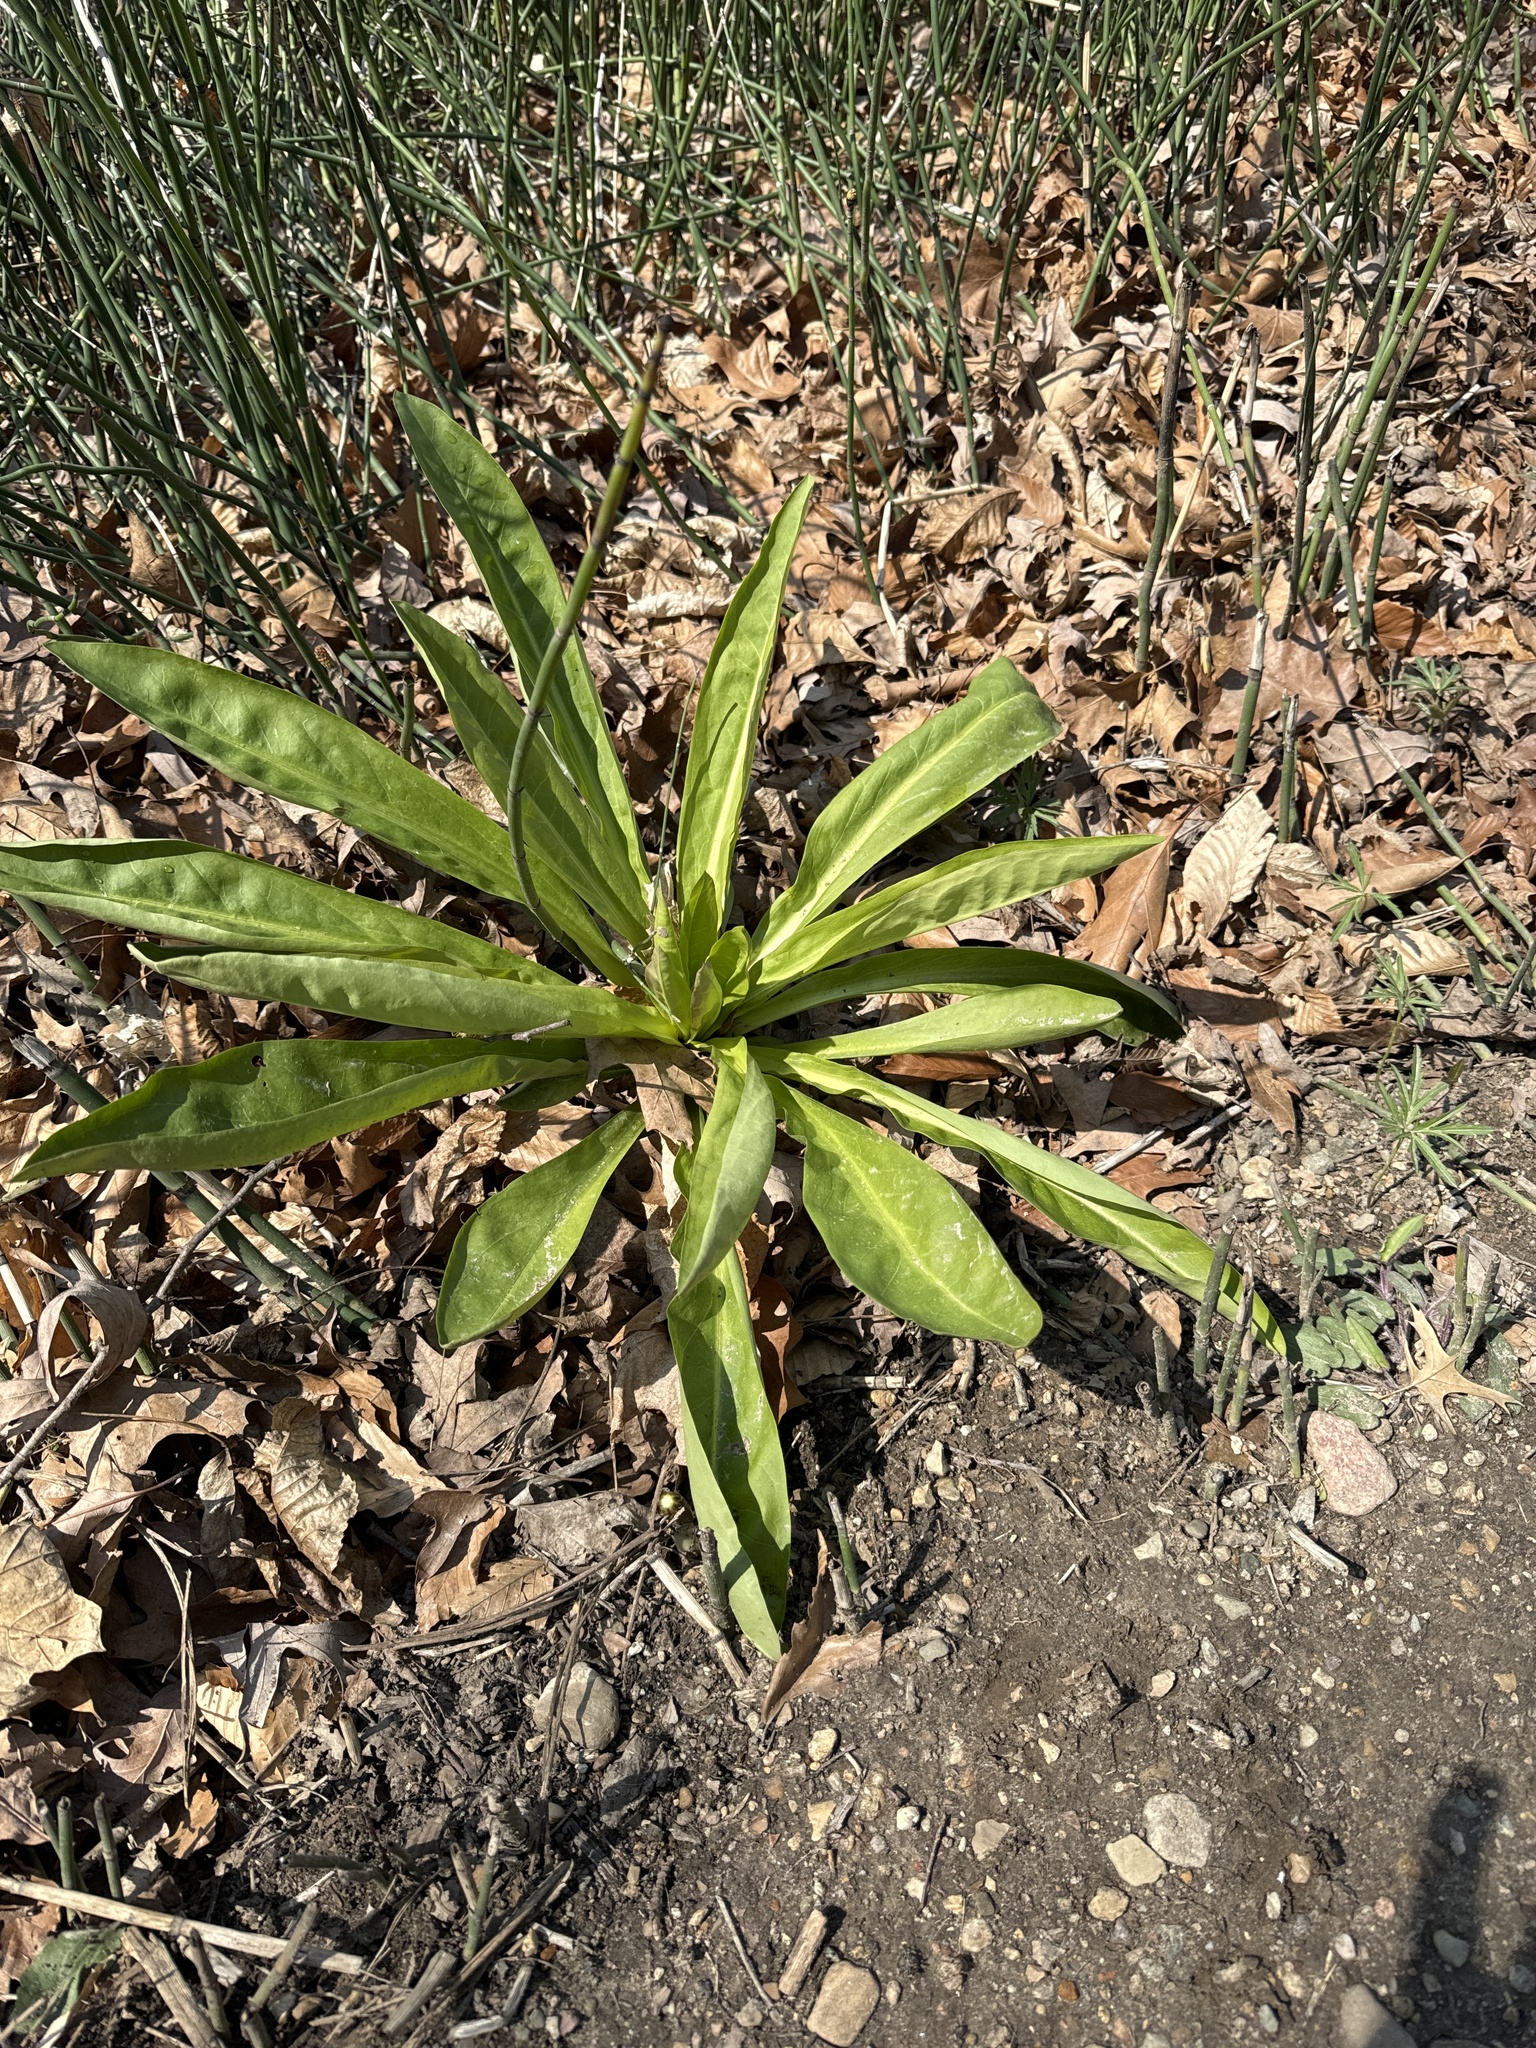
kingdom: Plantae
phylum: Tracheophyta
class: Magnoliopsida
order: Gentianales
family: Gentianaceae
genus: Frasera
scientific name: Frasera caroliniensis
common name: American columbo
